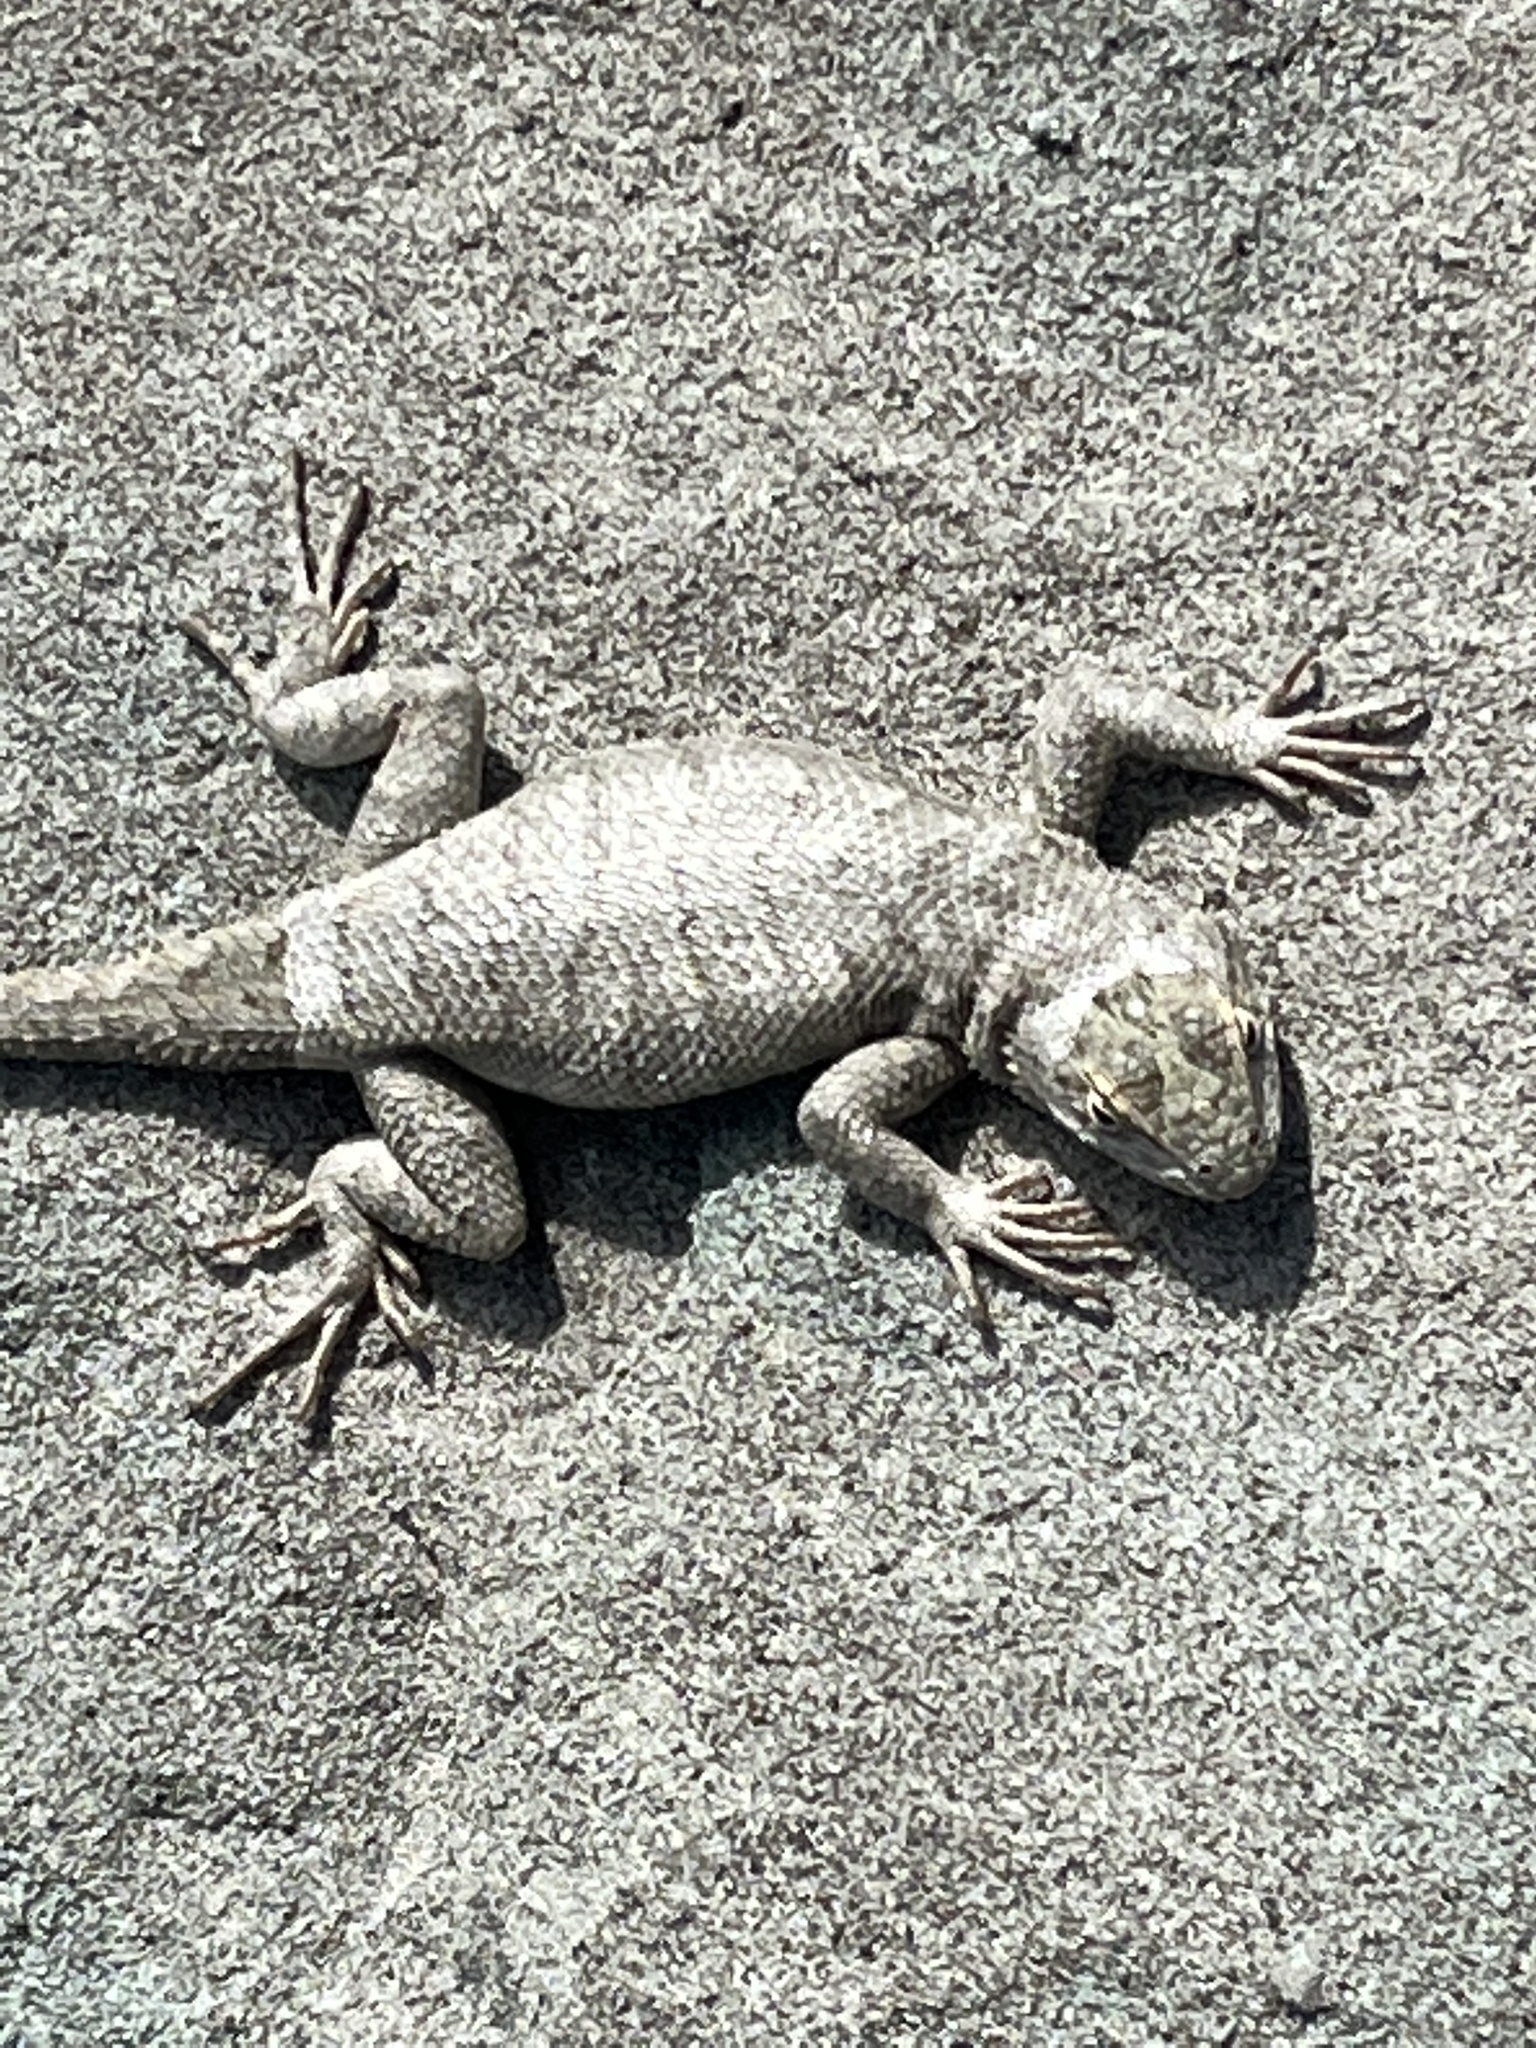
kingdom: Animalia
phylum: Chordata
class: Squamata
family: Phrynosomatidae
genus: Sceloporus
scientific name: Sceloporus tristichus
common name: Plateau fence lizard
